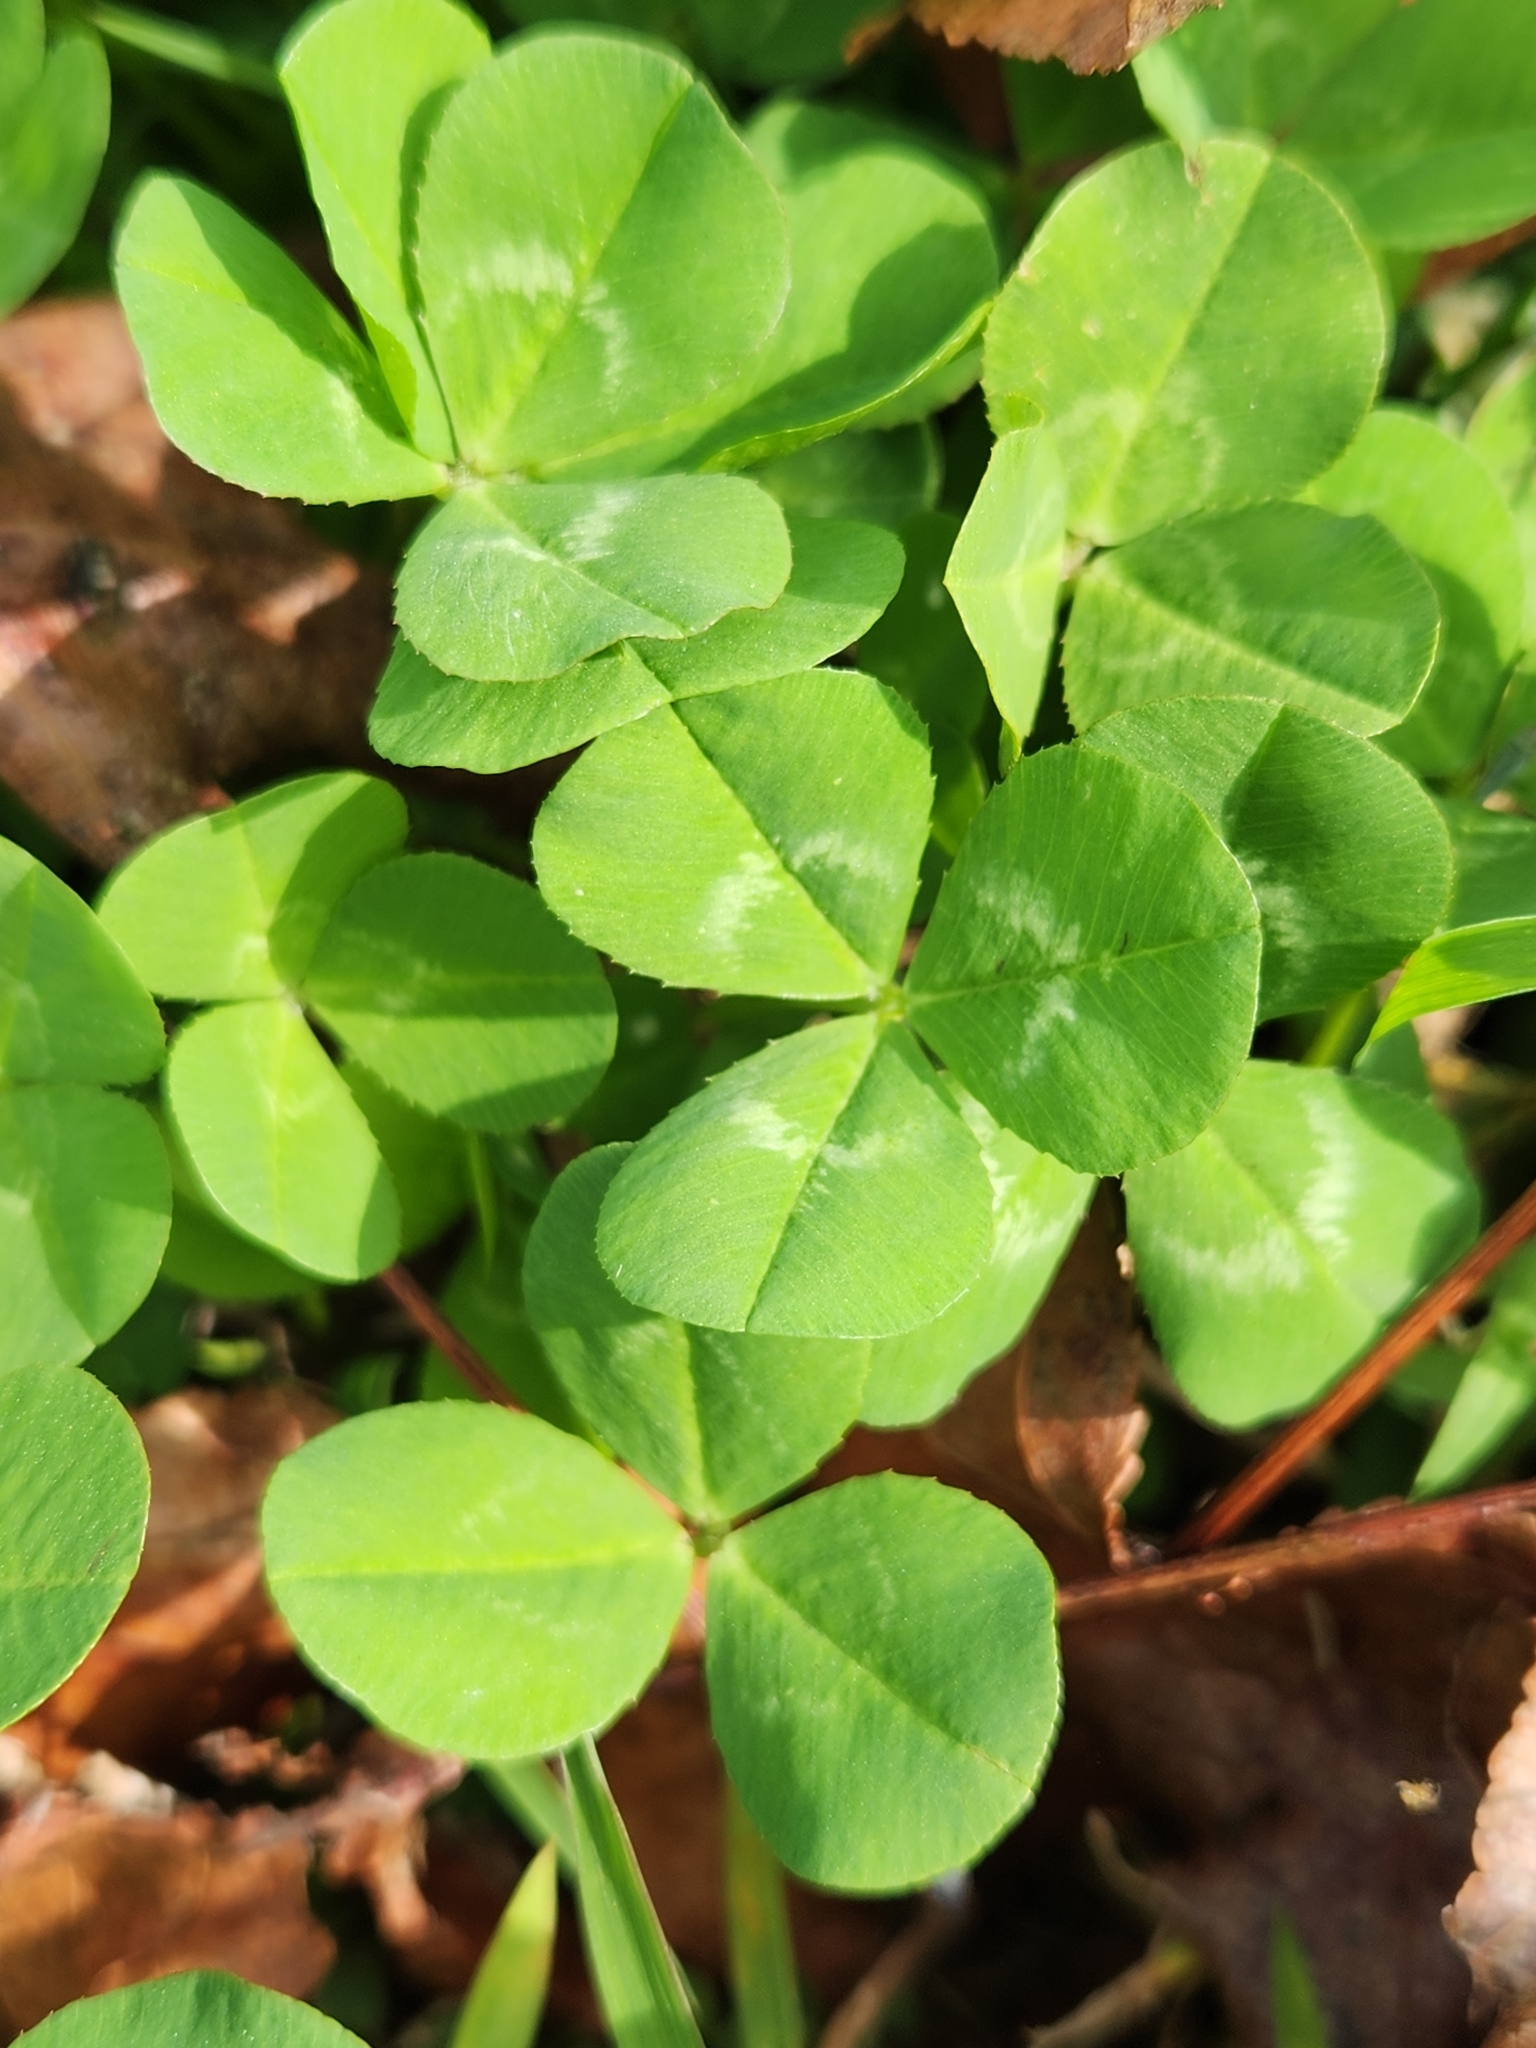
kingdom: Plantae
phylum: Tracheophyta
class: Magnoliopsida
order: Fabales
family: Fabaceae
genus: Trifolium
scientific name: Trifolium repens
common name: White clover
